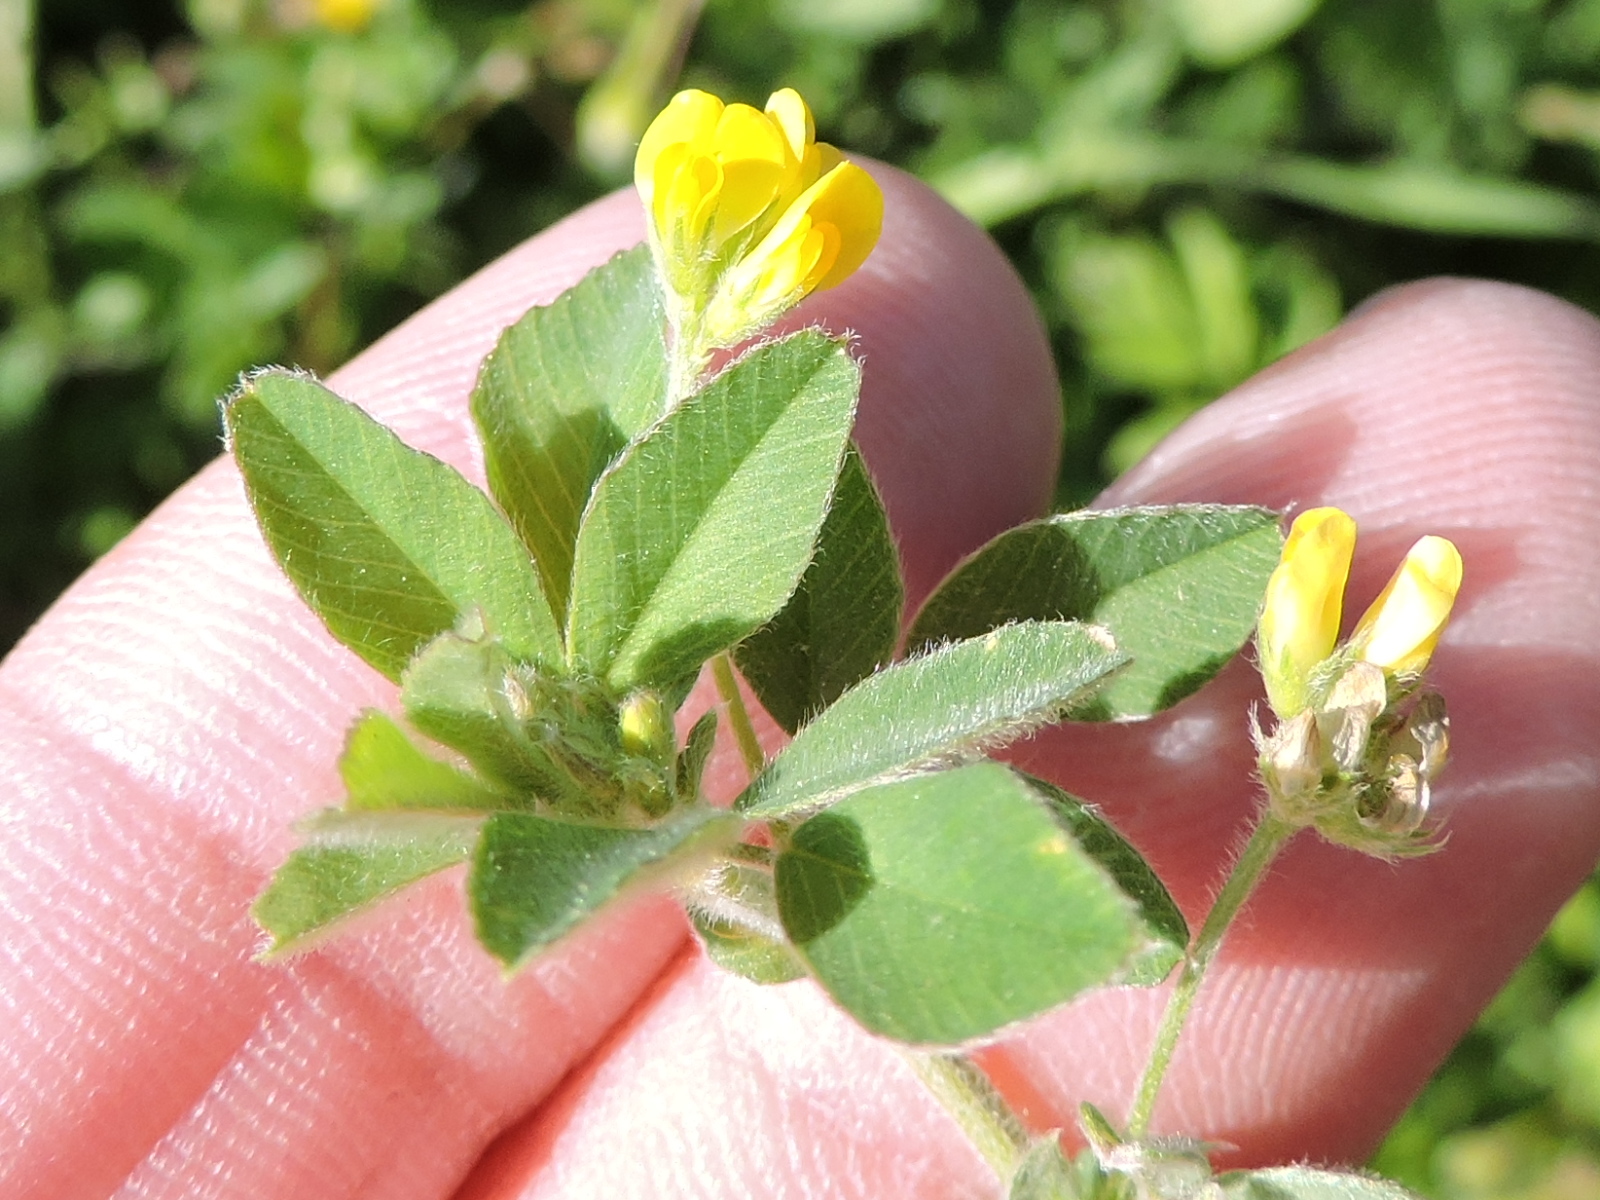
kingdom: Plantae
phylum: Tracheophyta
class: Magnoliopsida
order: Fabales
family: Fabaceae
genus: Medicago
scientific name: Medicago minima
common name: Little bur-clover
